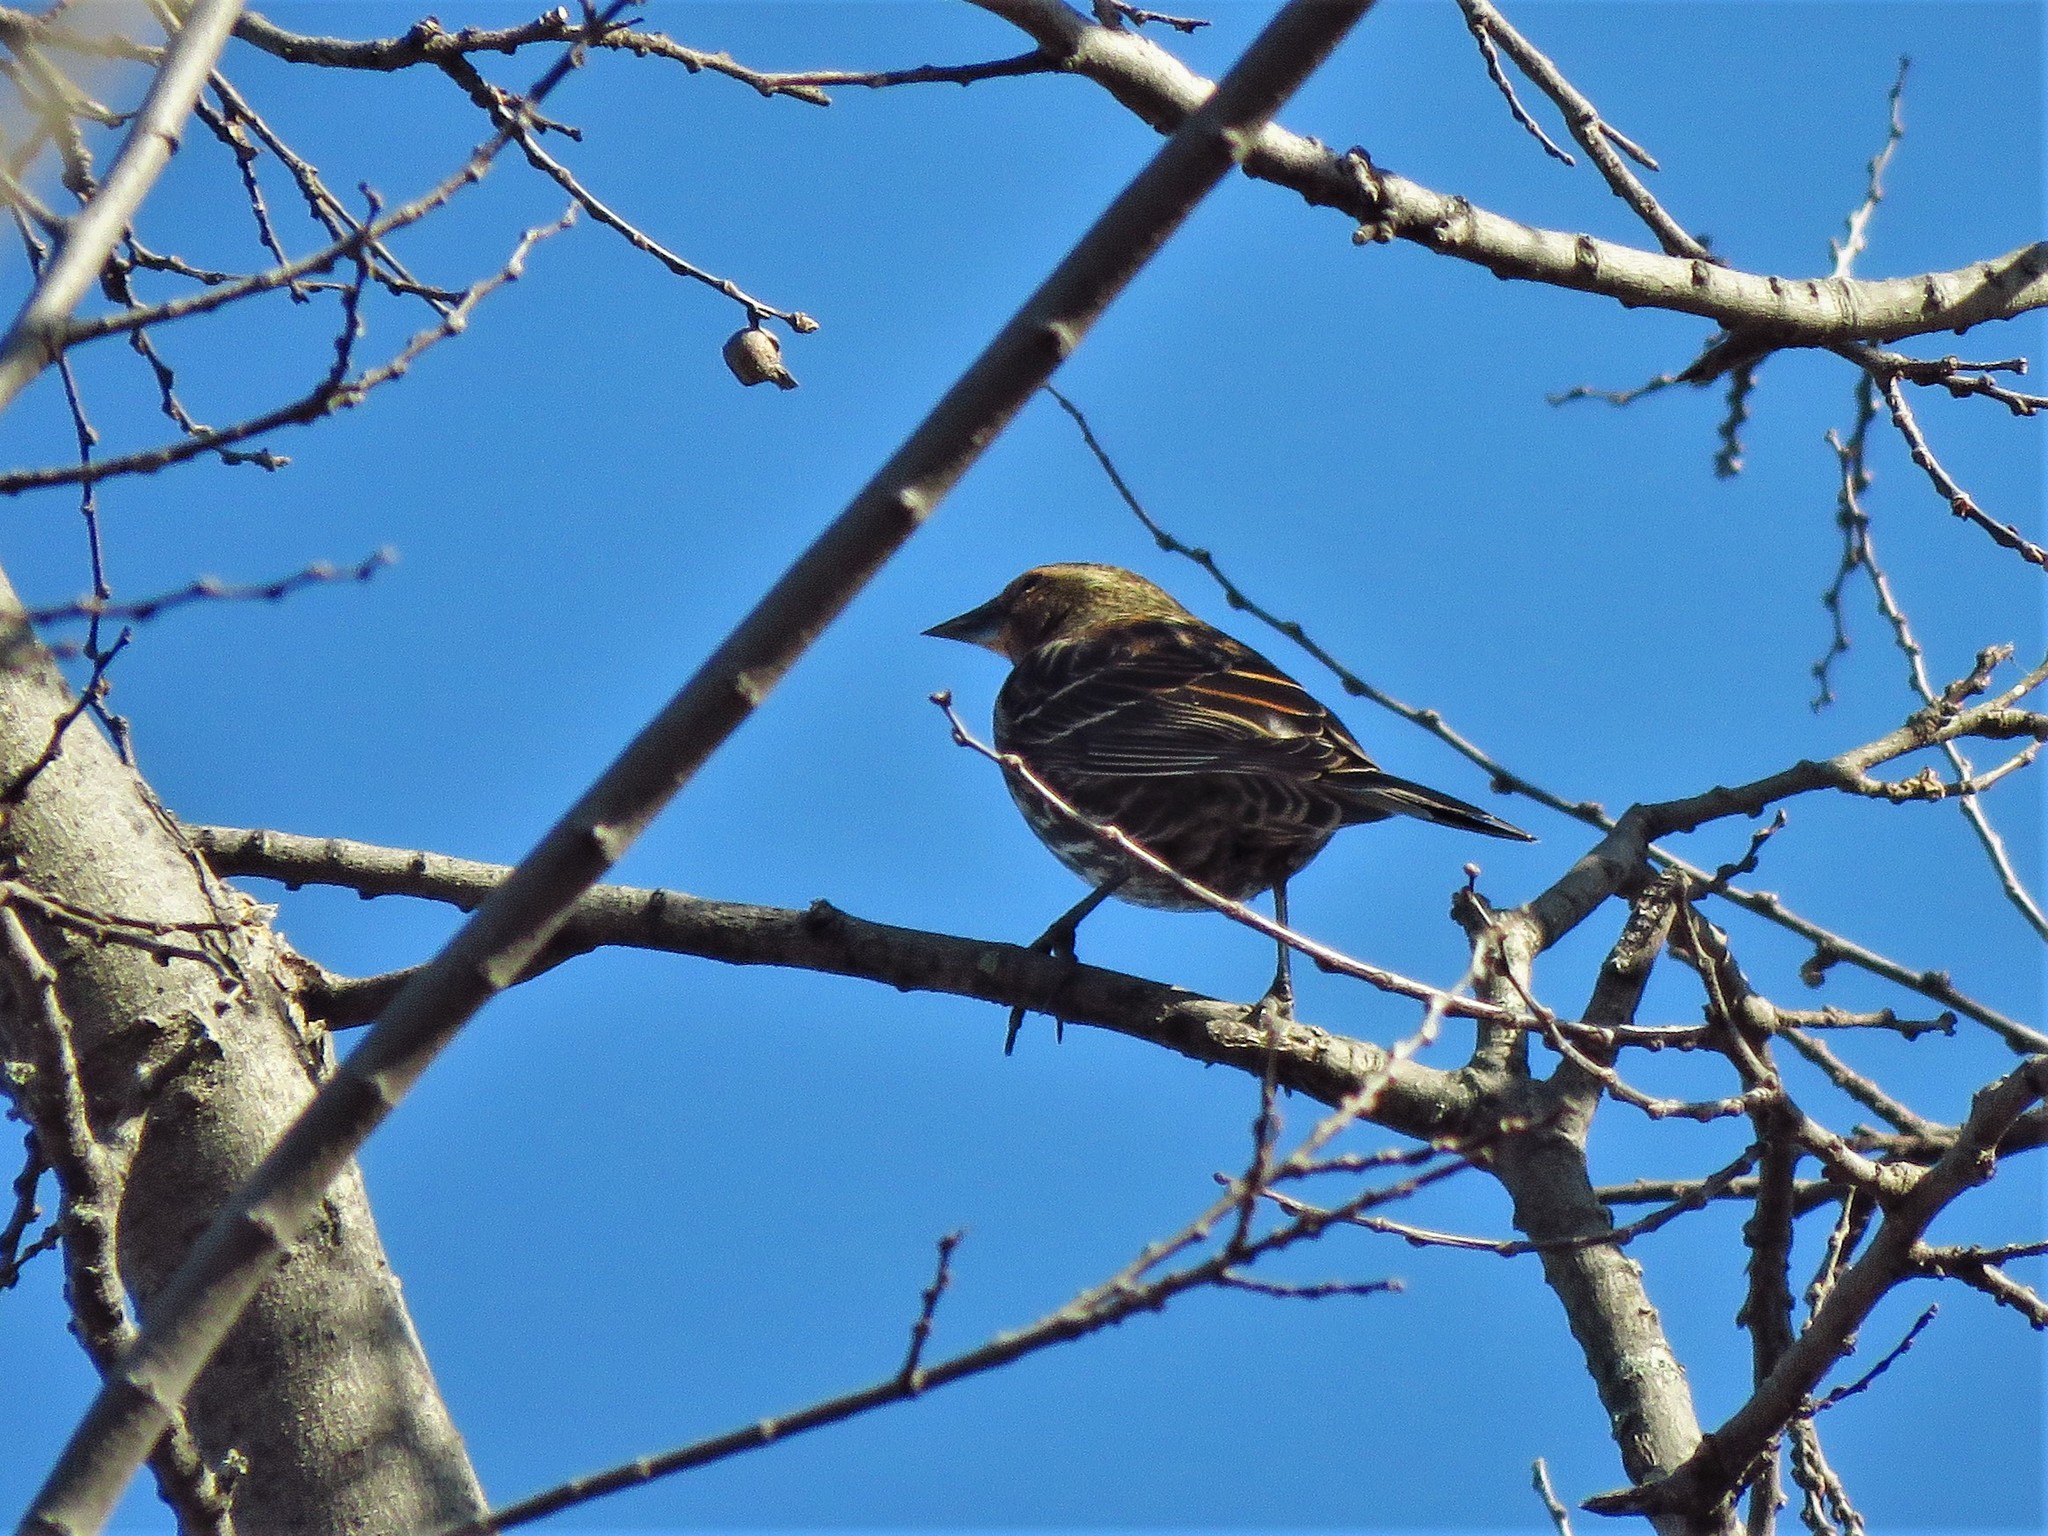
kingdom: Animalia
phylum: Chordata
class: Aves
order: Passeriformes
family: Icteridae
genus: Agelaius
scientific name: Agelaius phoeniceus
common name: Red-winged blackbird
